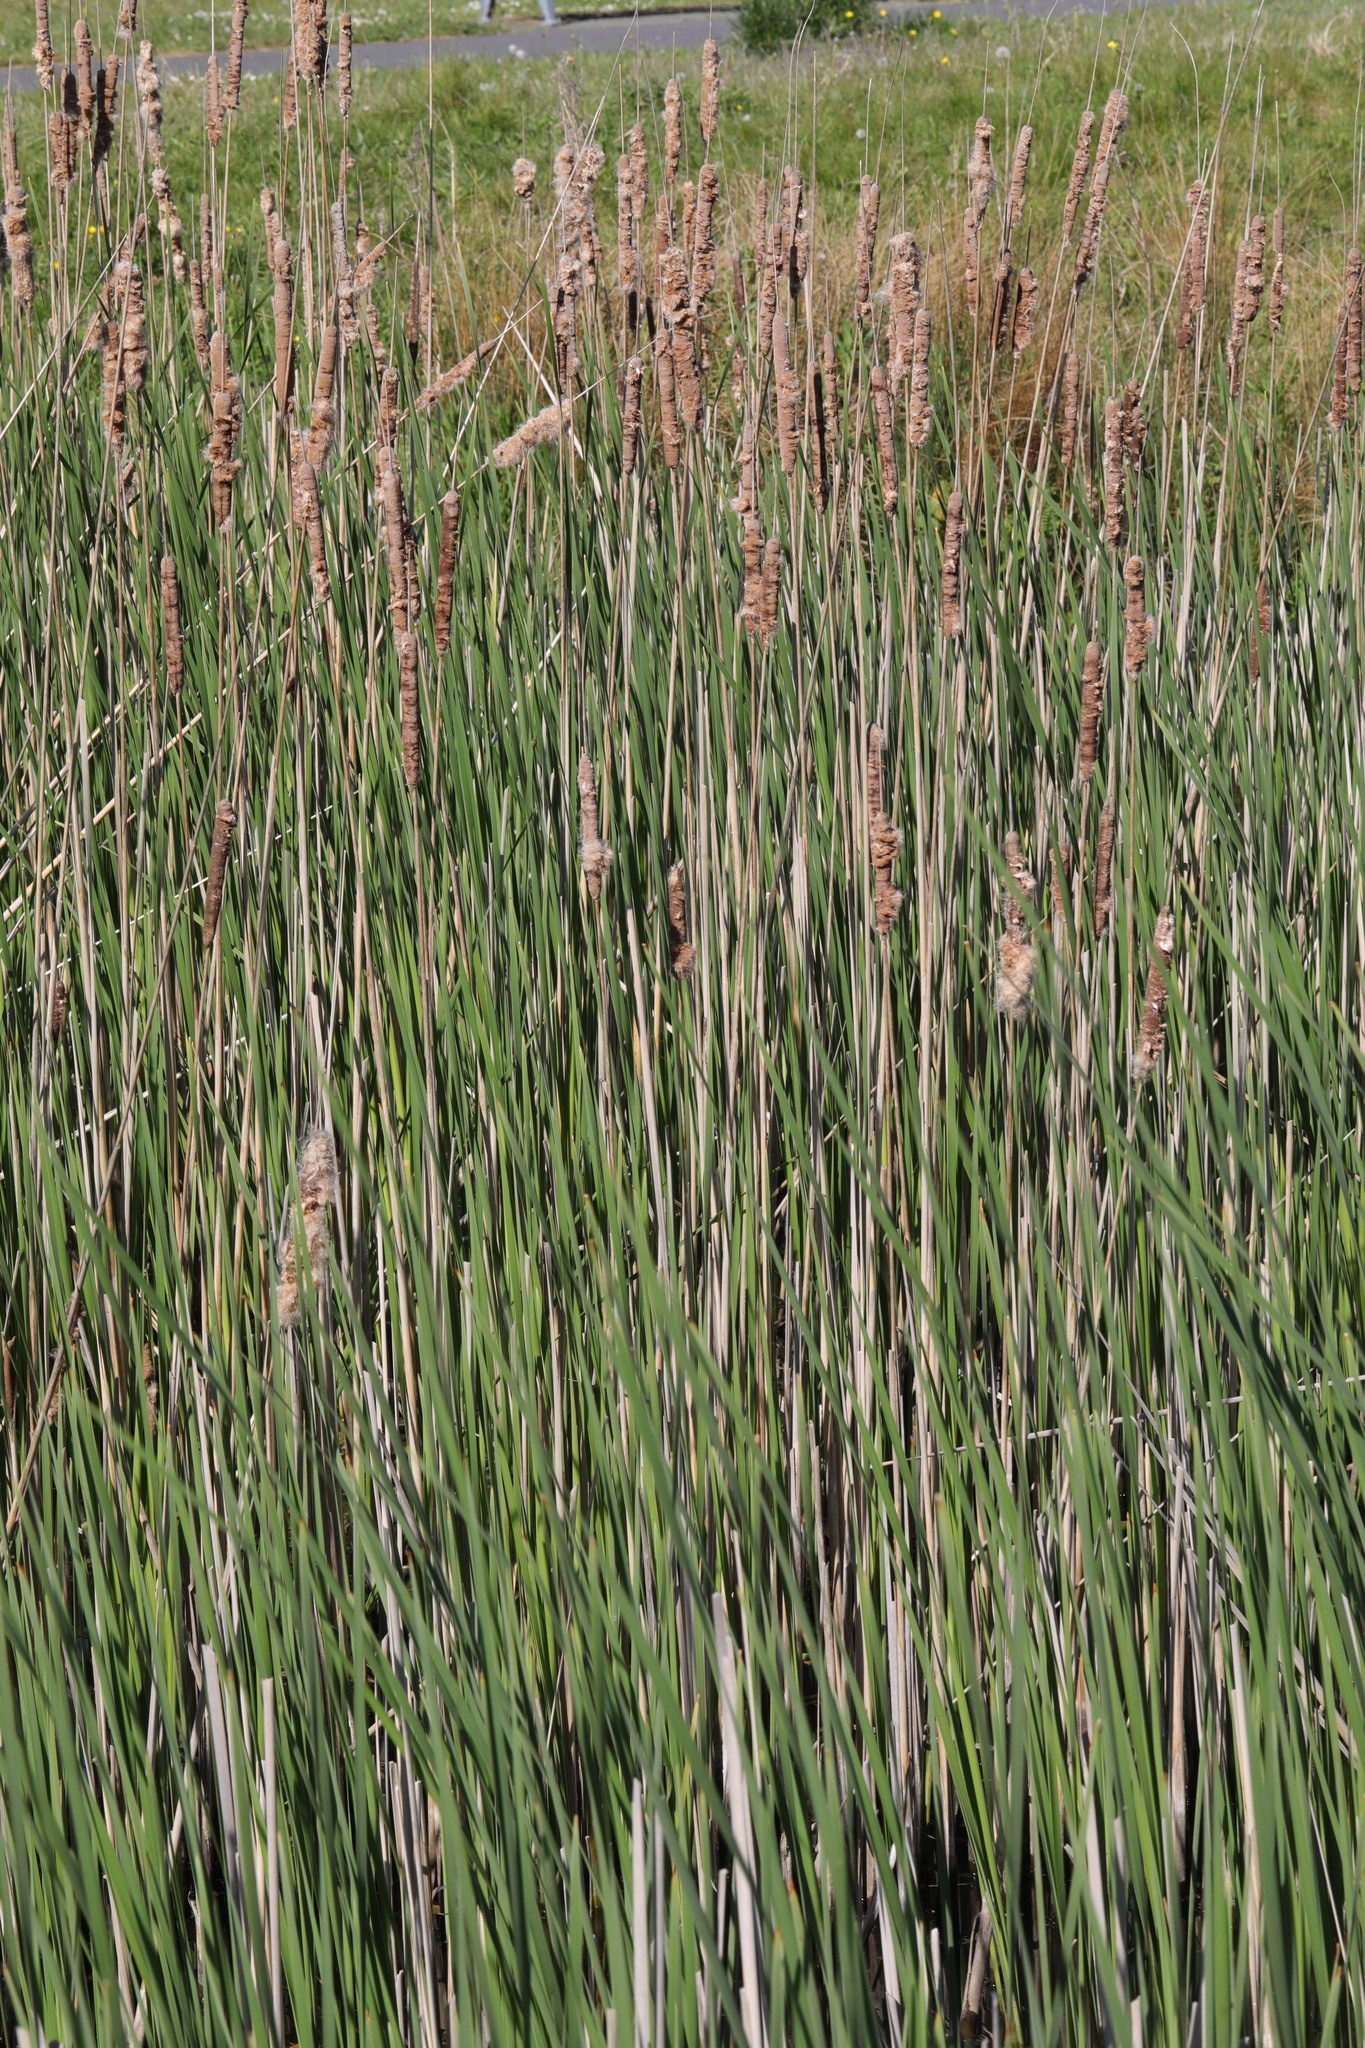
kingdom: Plantae
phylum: Tracheophyta
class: Liliopsida
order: Poales
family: Typhaceae
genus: Typha
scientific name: Typha angustifolia
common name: Lesser bulrush
